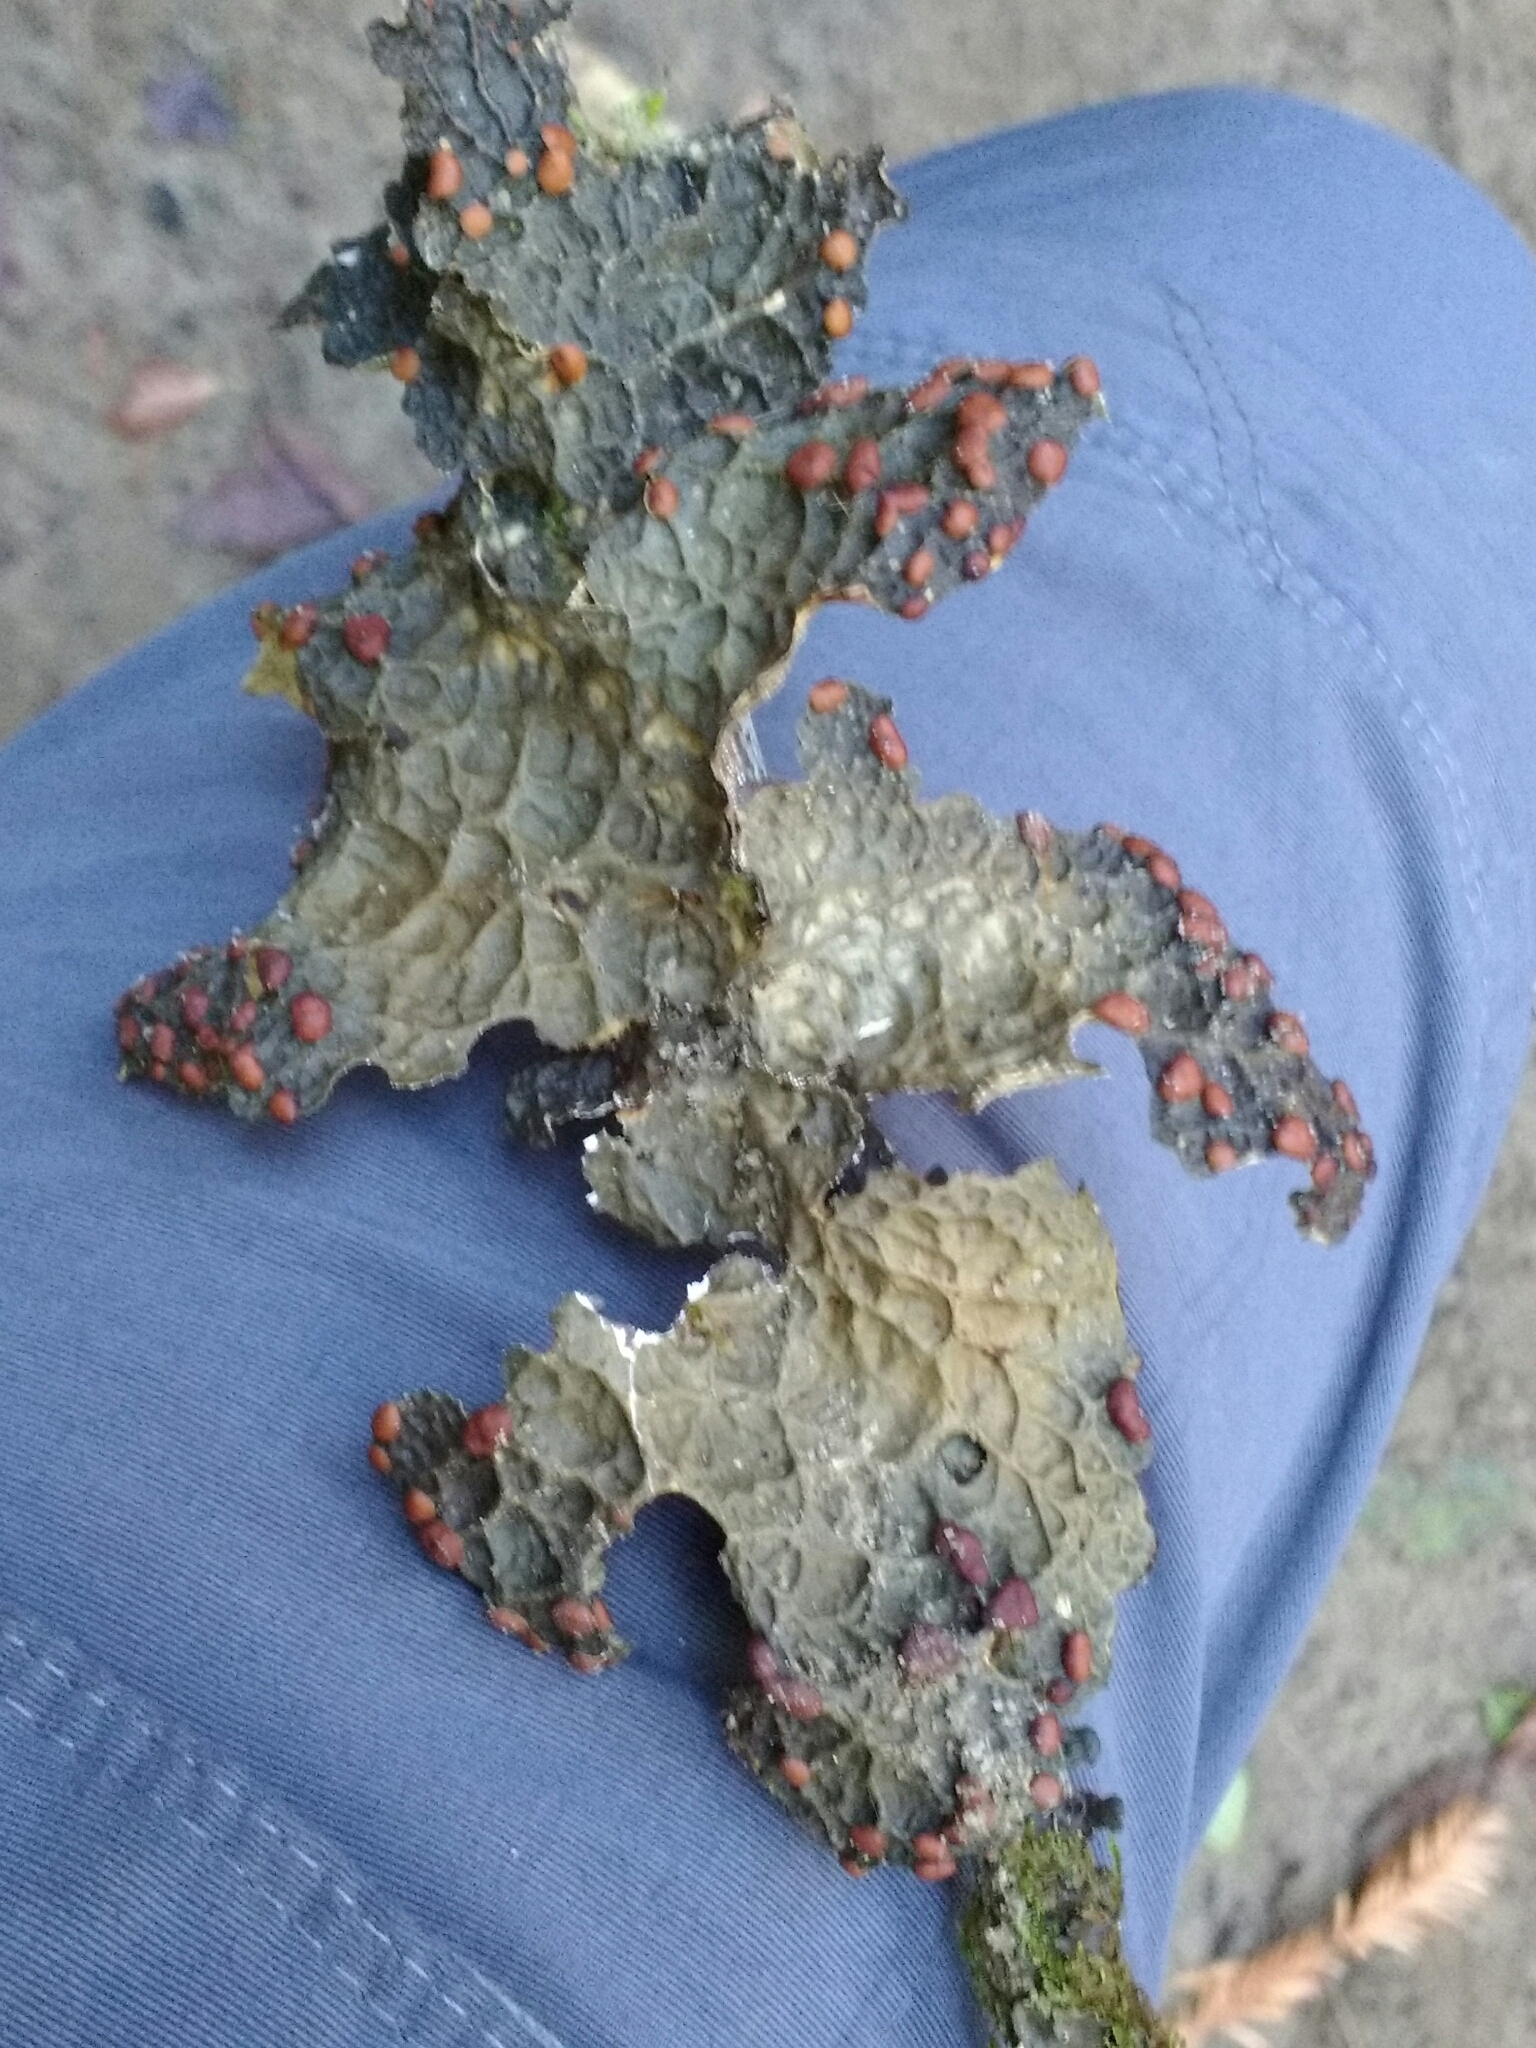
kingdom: Fungi
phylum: Ascomycota
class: Lecanoromycetes
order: Peltigerales
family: Lobariaceae
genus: Lobaria
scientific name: Lobaria anthraspis
